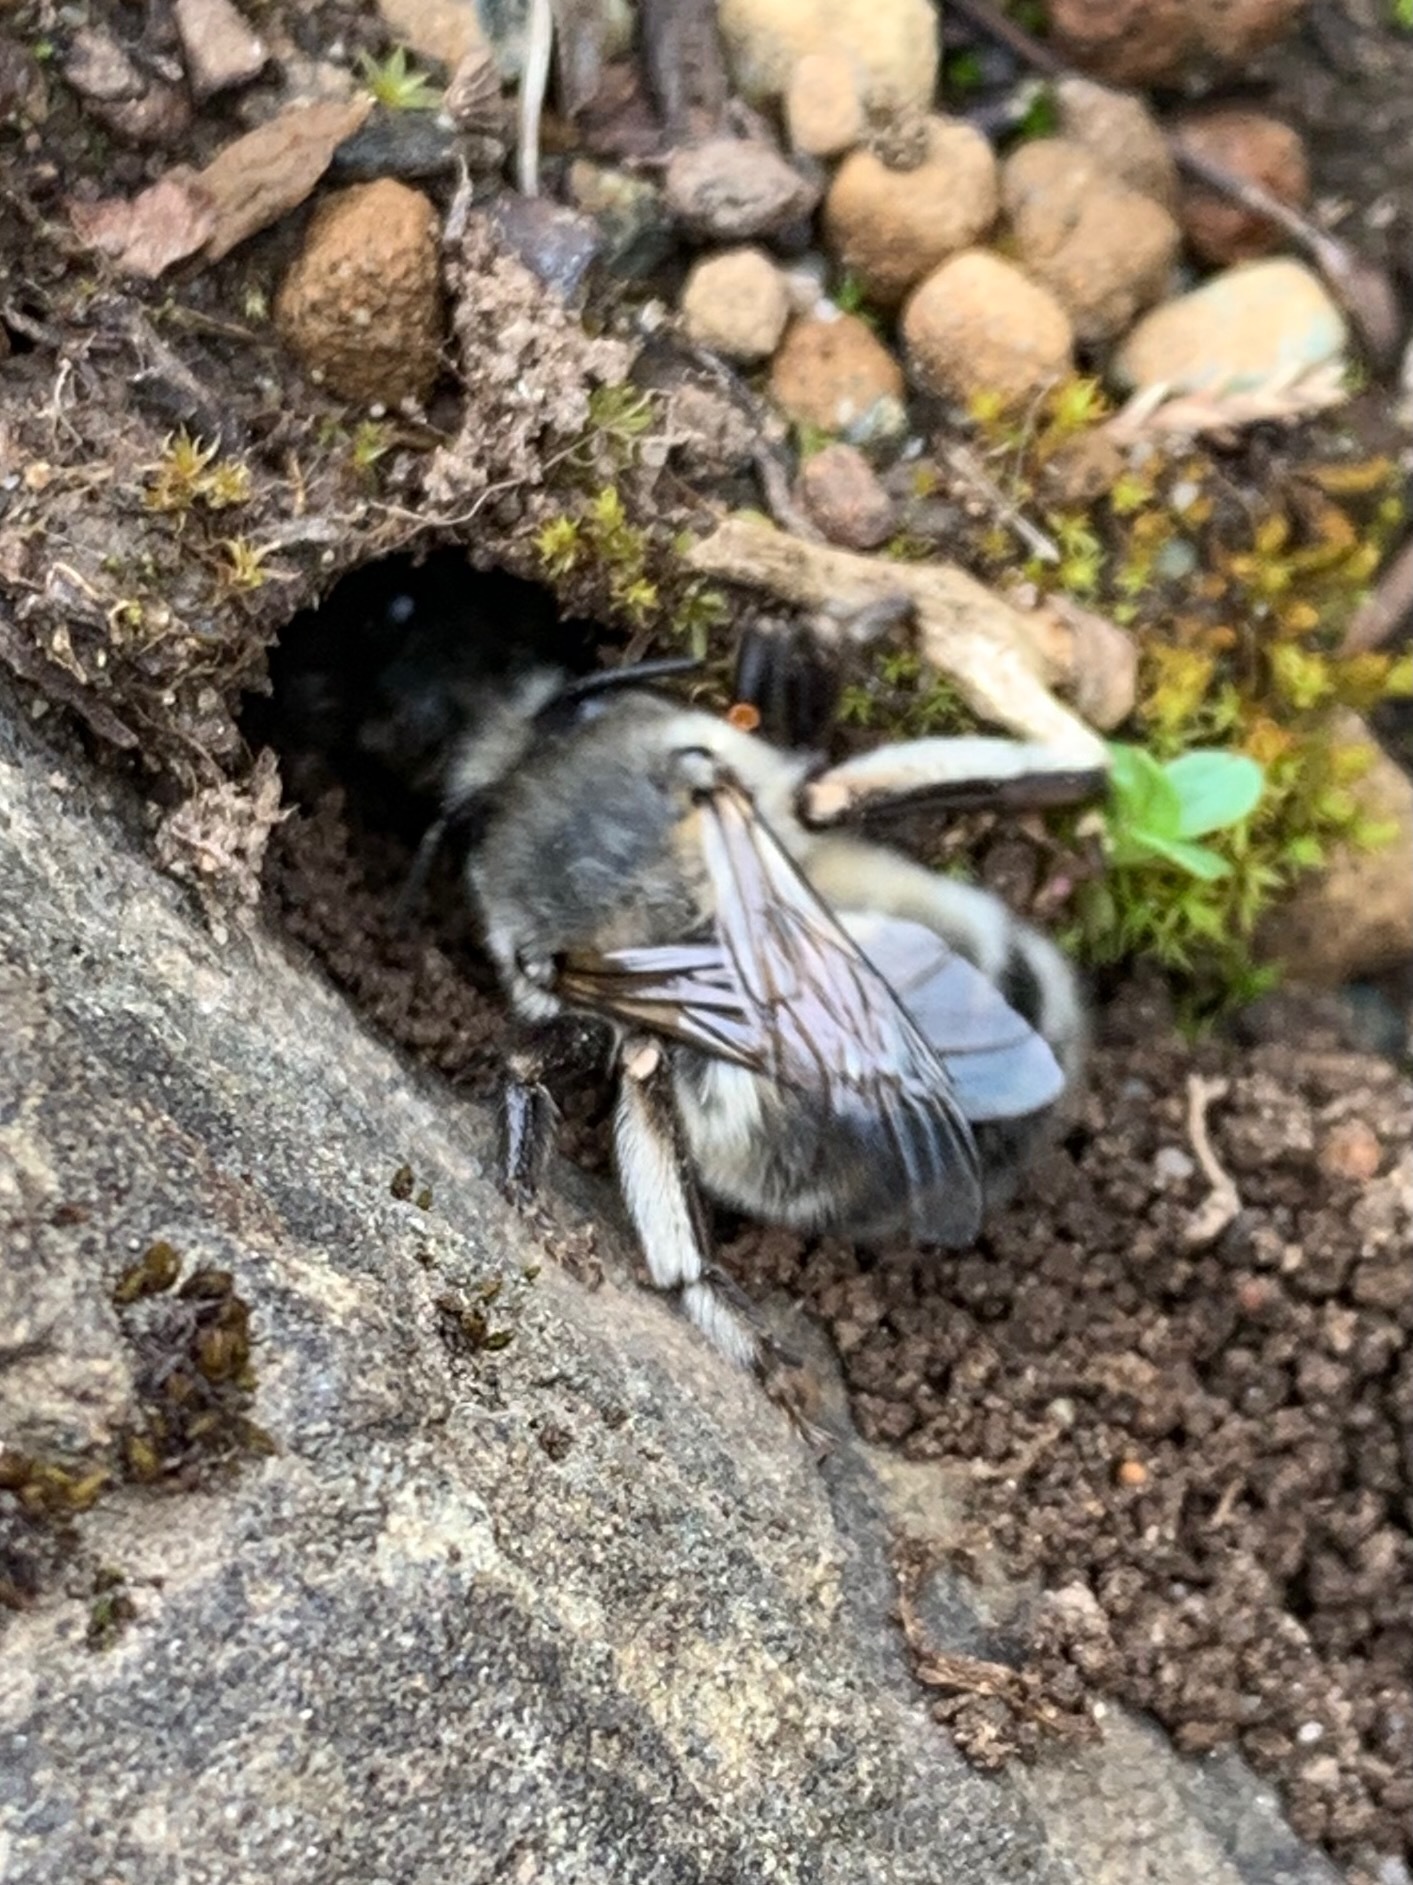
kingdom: Animalia
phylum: Arthropoda
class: Insecta
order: Hymenoptera
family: Apidae
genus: Anthophora
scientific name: Anthophora pacifica
